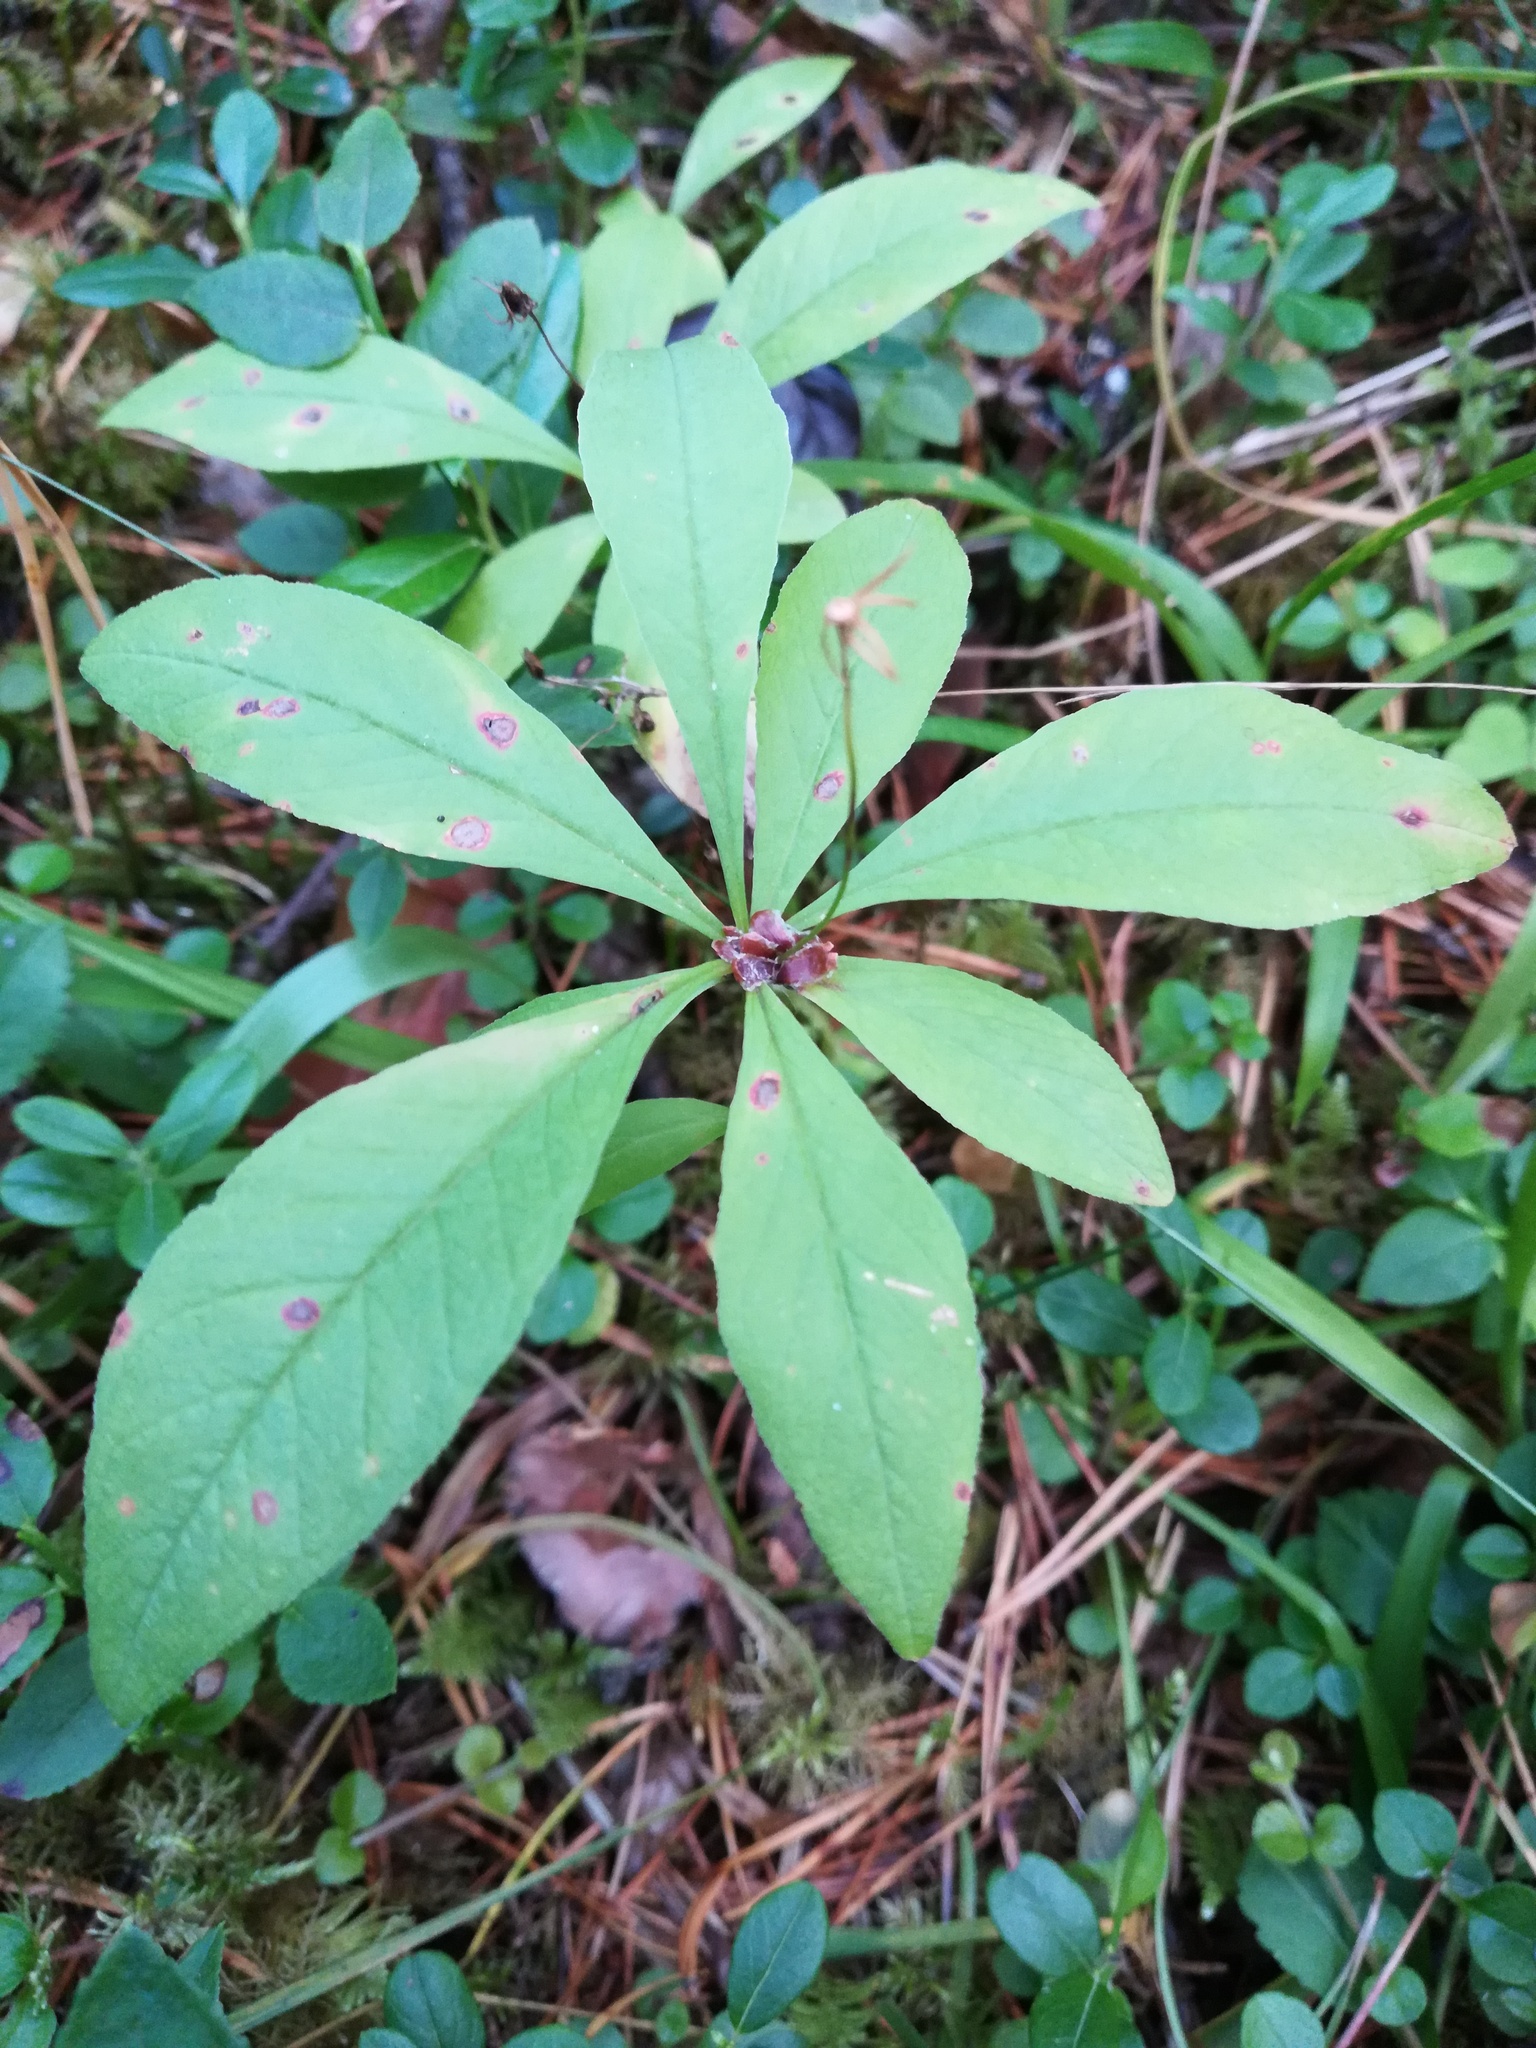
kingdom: Plantae
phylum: Tracheophyta
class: Magnoliopsida
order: Ericales
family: Primulaceae
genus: Lysimachia
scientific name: Lysimachia europaea
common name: Arctic starflower
